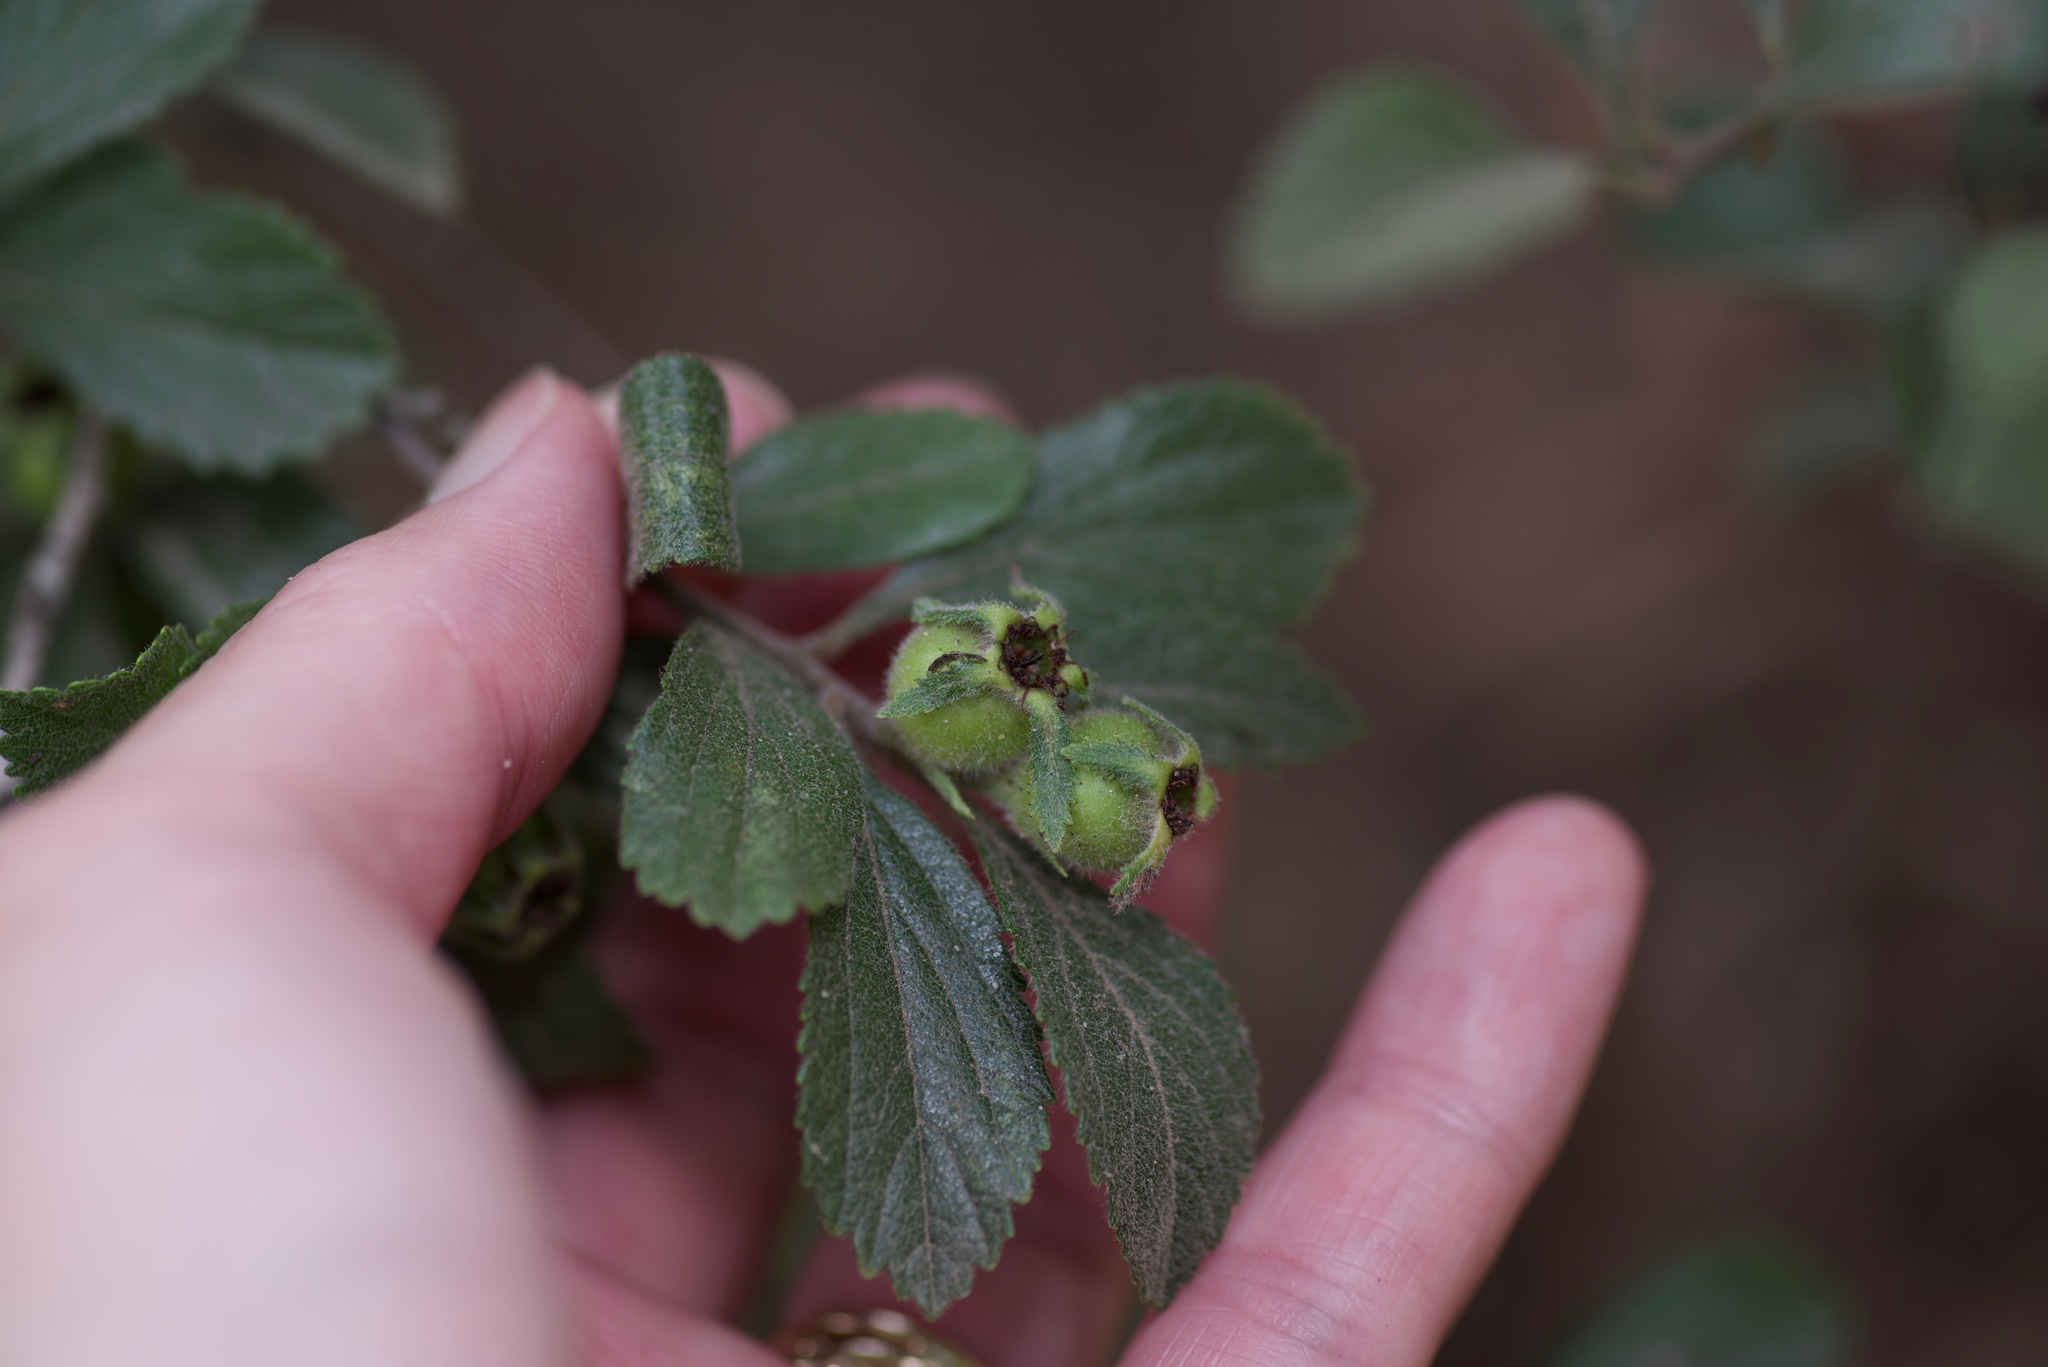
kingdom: Plantae
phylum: Tracheophyta
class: Magnoliopsida
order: Rosales
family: Rosaceae
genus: Crataegus
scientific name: Crataegus uniflora
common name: One-flower hawthorn
